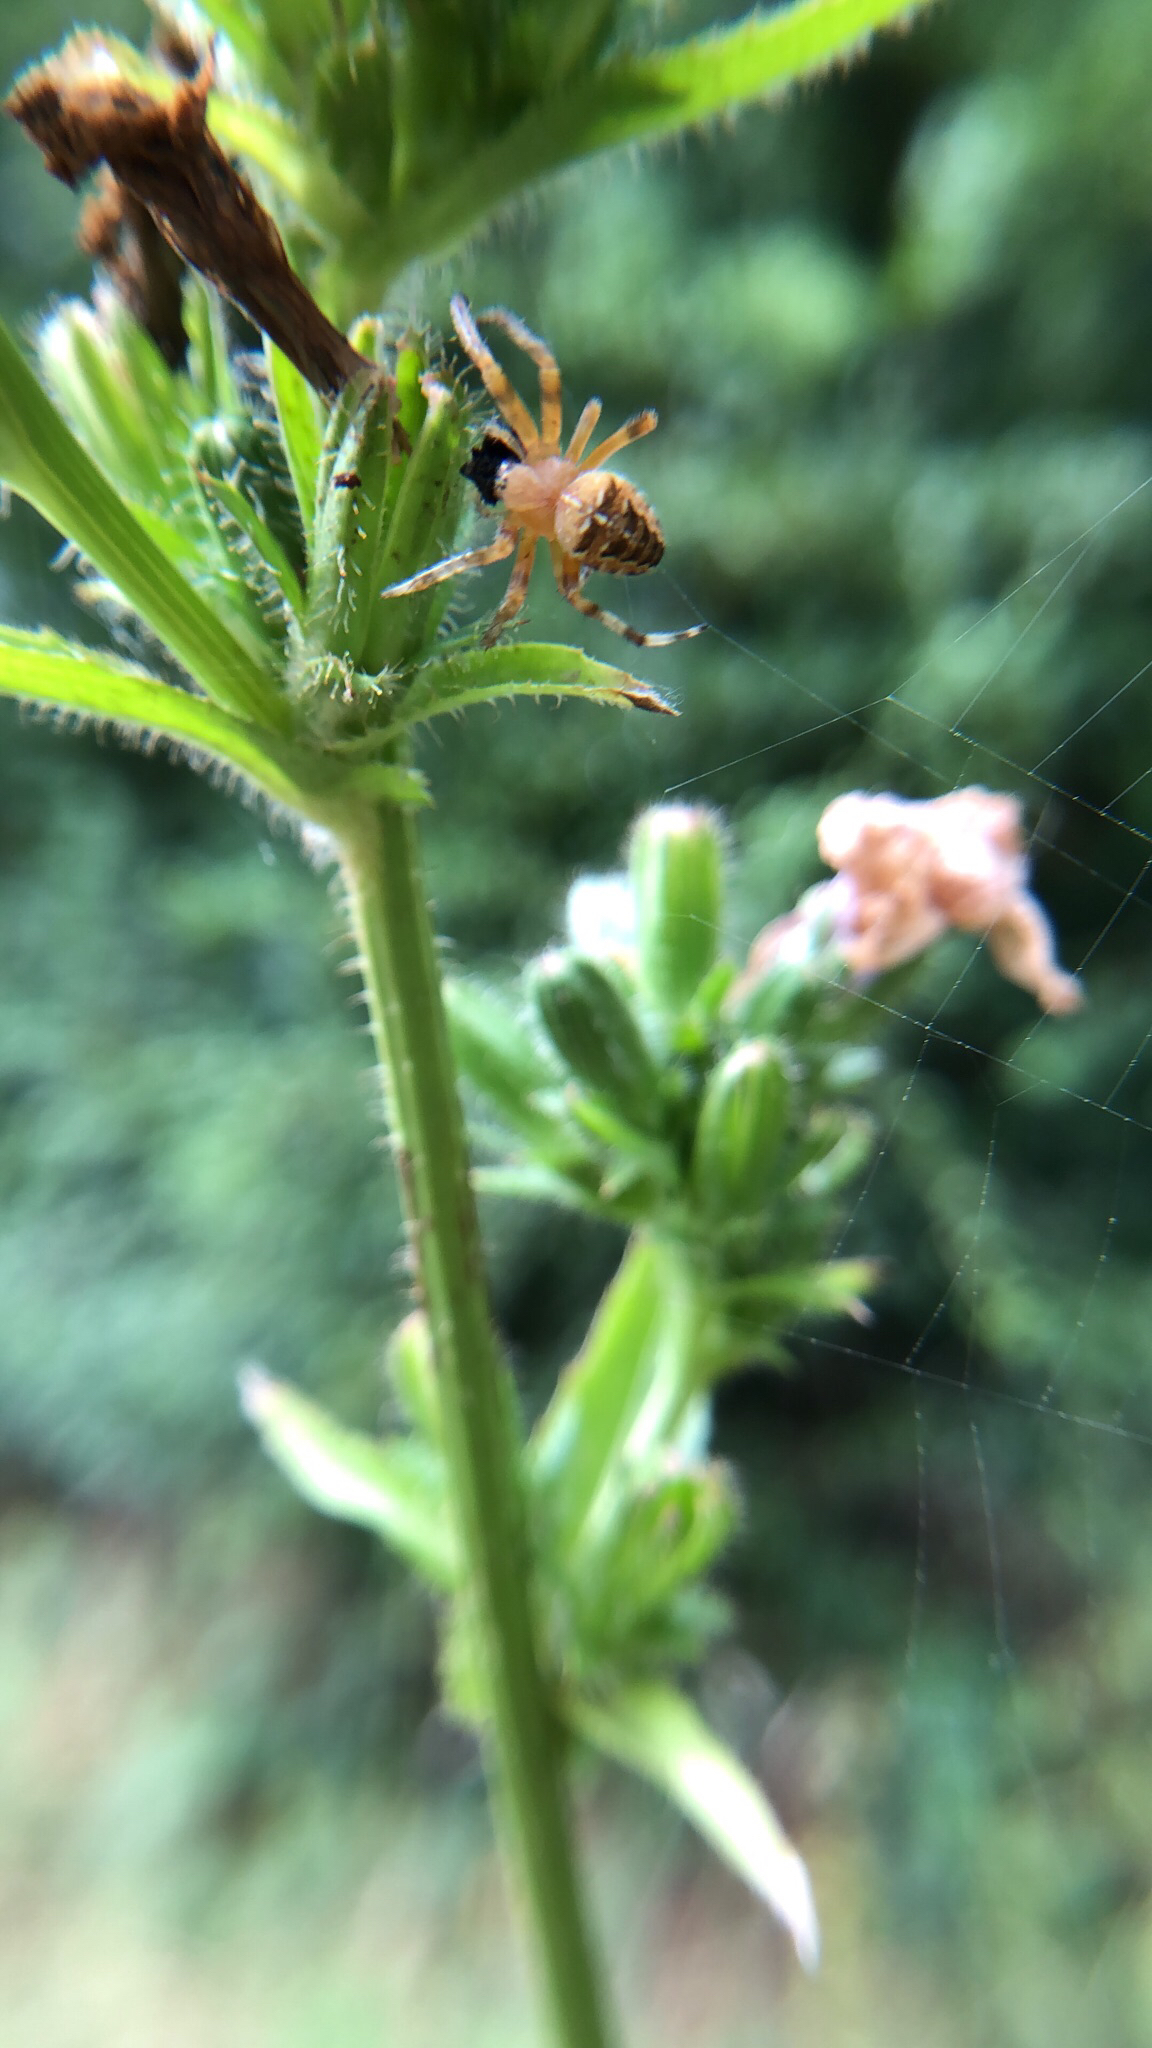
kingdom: Animalia
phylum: Arthropoda
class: Arachnida
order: Araneae
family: Araneidae
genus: Araneus
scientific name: Araneus diadematus
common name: Cross orbweaver
